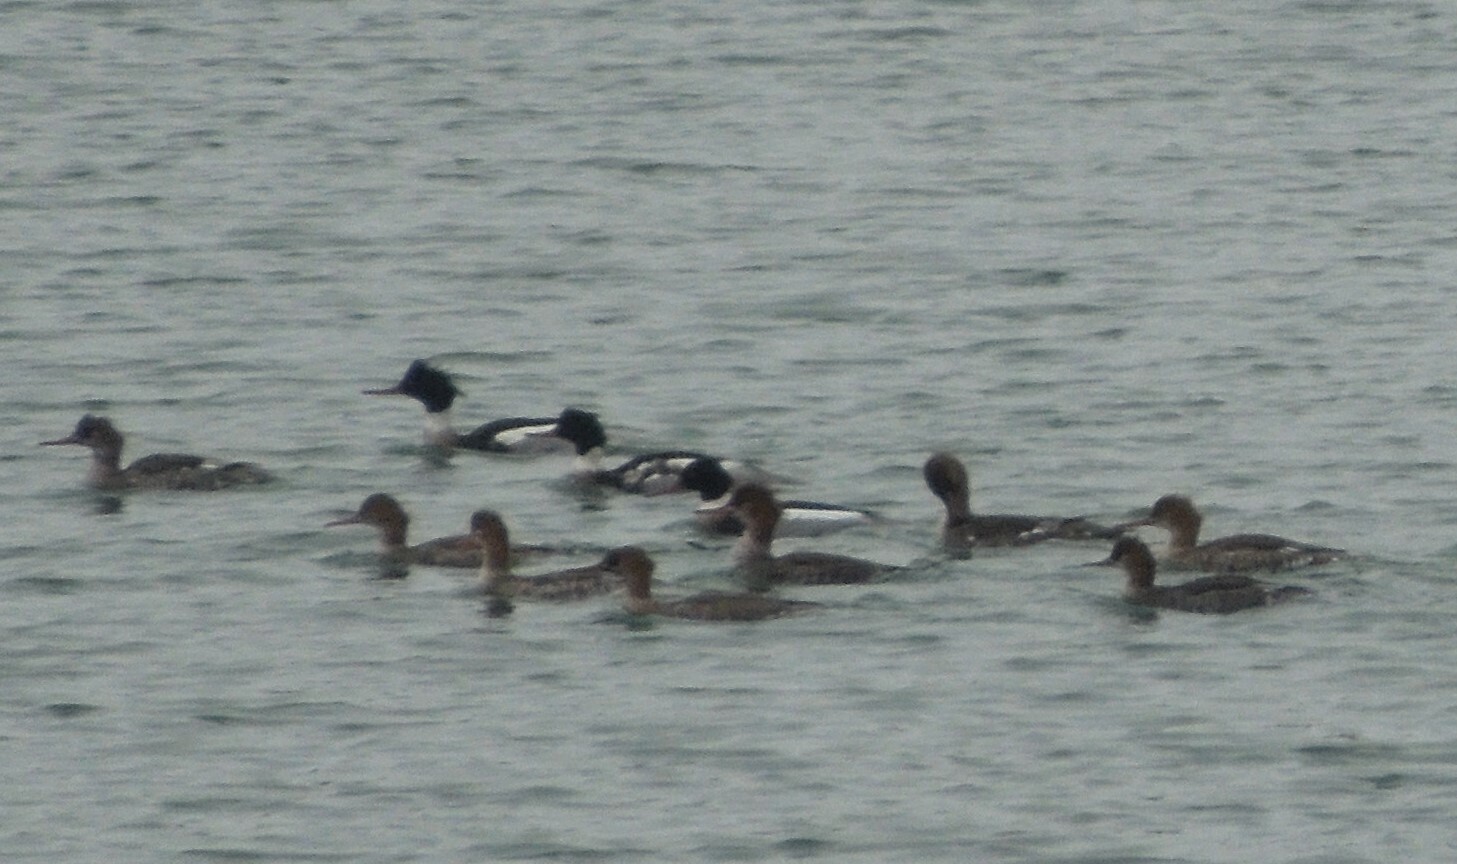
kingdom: Animalia
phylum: Chordata
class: Aves
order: Anseriformes
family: Anatidae
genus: Mergus
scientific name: Mergus serrator
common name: Red-breasted merganser
